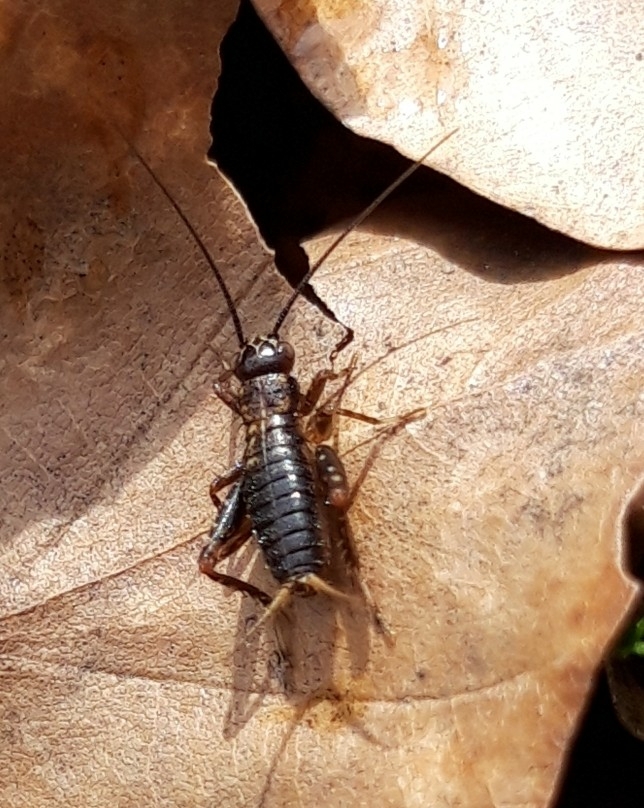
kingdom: Animalia
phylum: Arthropoda
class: Insecta
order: Orthoptera
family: Trigonidiidae
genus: Nemobius
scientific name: Nemobius sylvestris
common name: Wood-cricket
